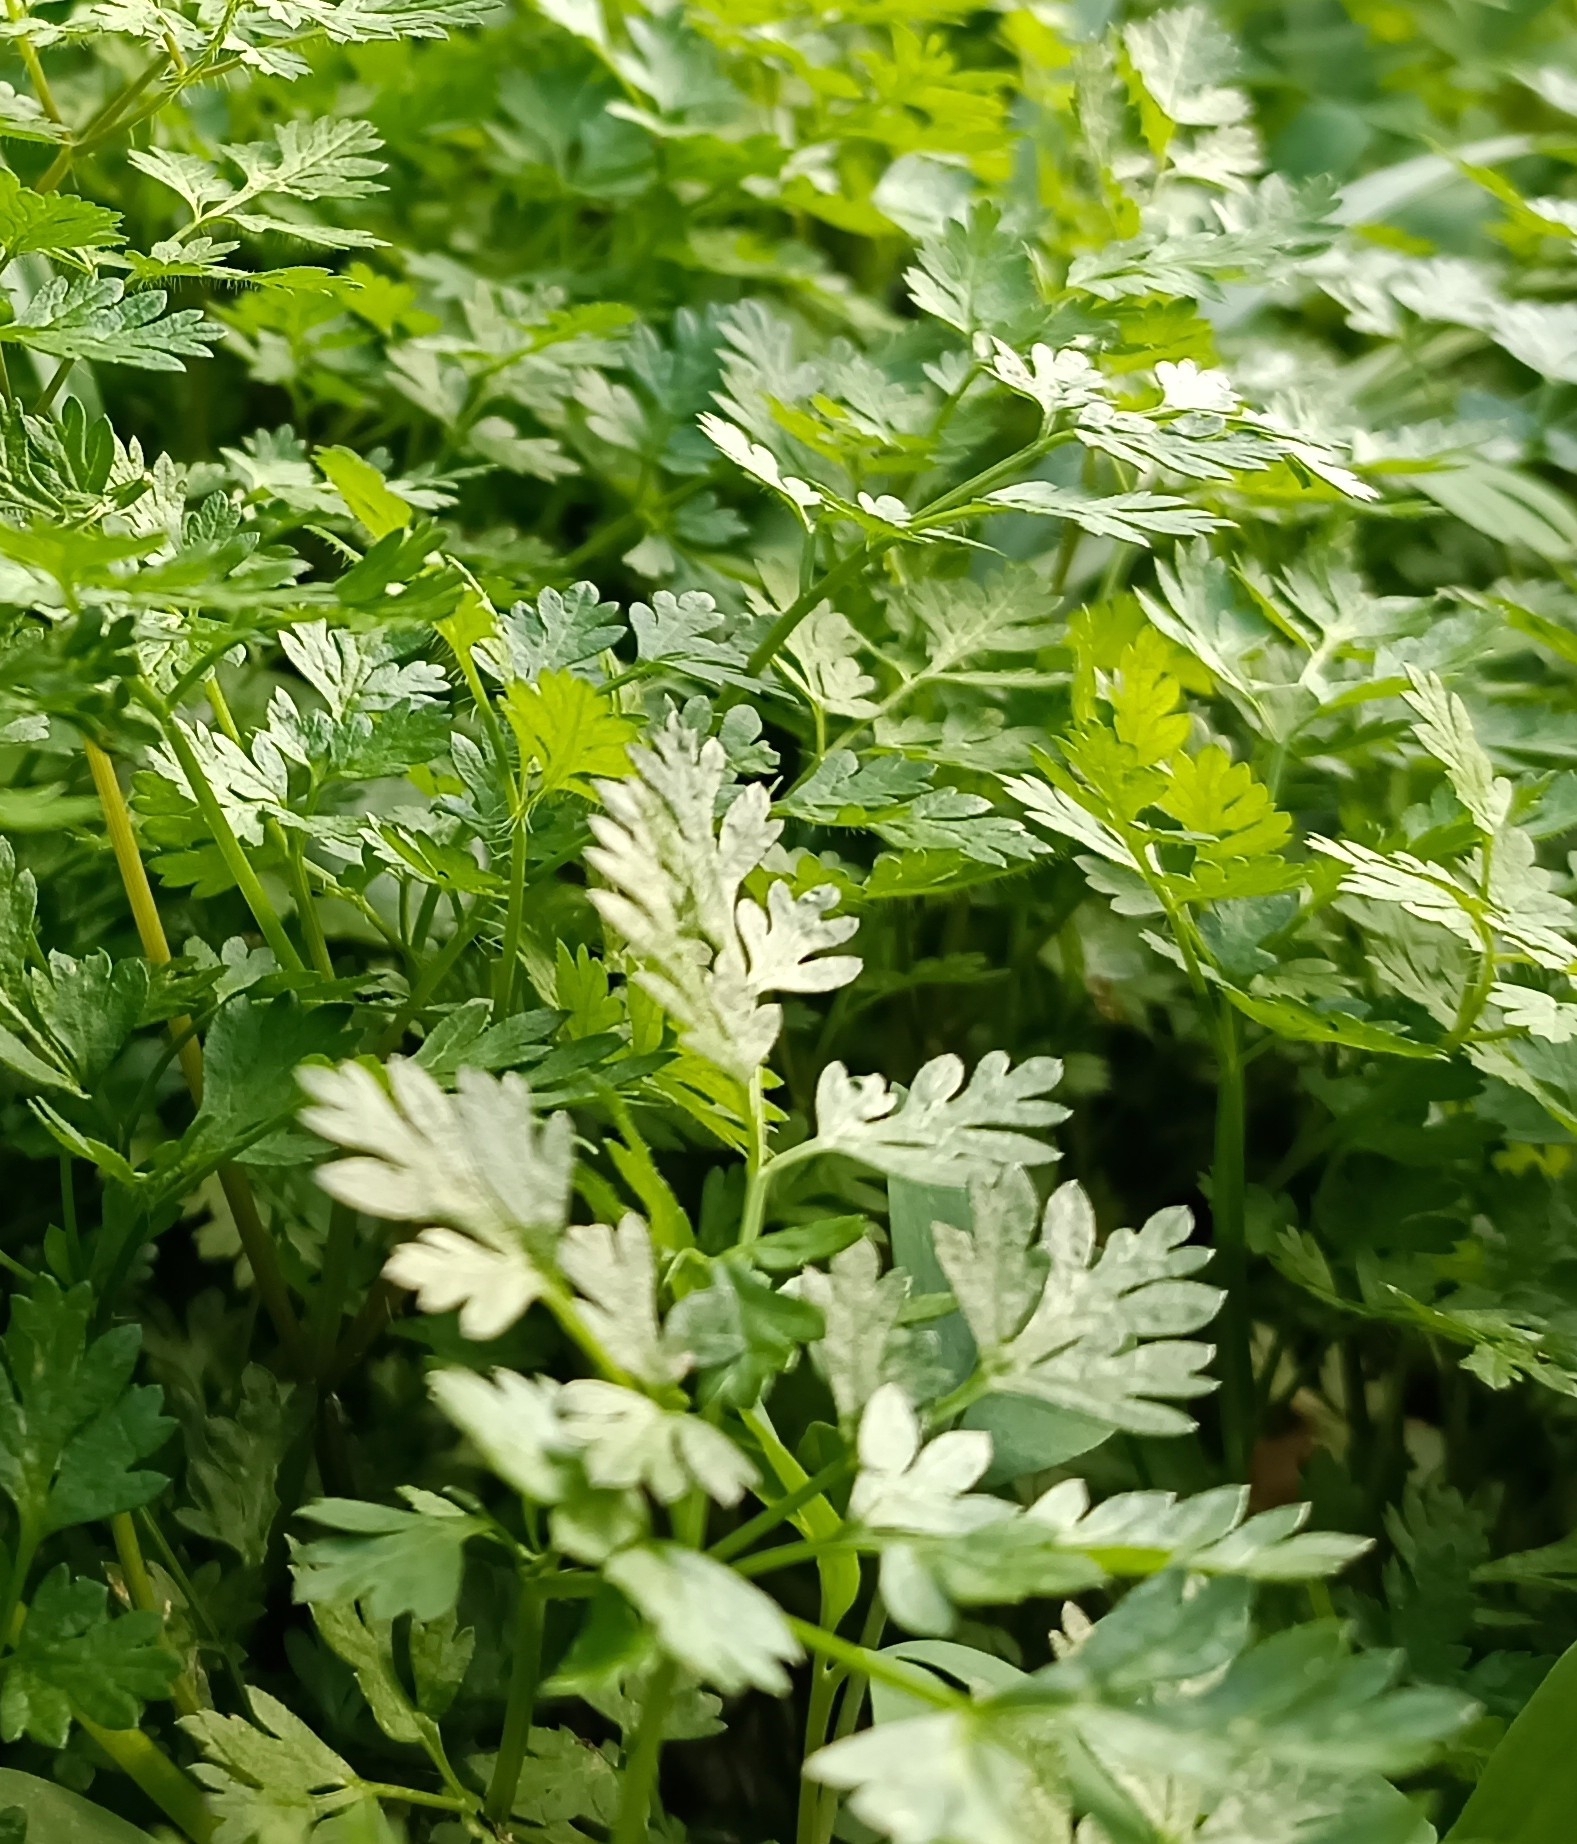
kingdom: Plantae
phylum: Tracheophyta
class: Magnoliopsida
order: Apiales
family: Apiaceae
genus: Anthriscus
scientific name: Anthriscus cerefolium
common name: Garden chervil
